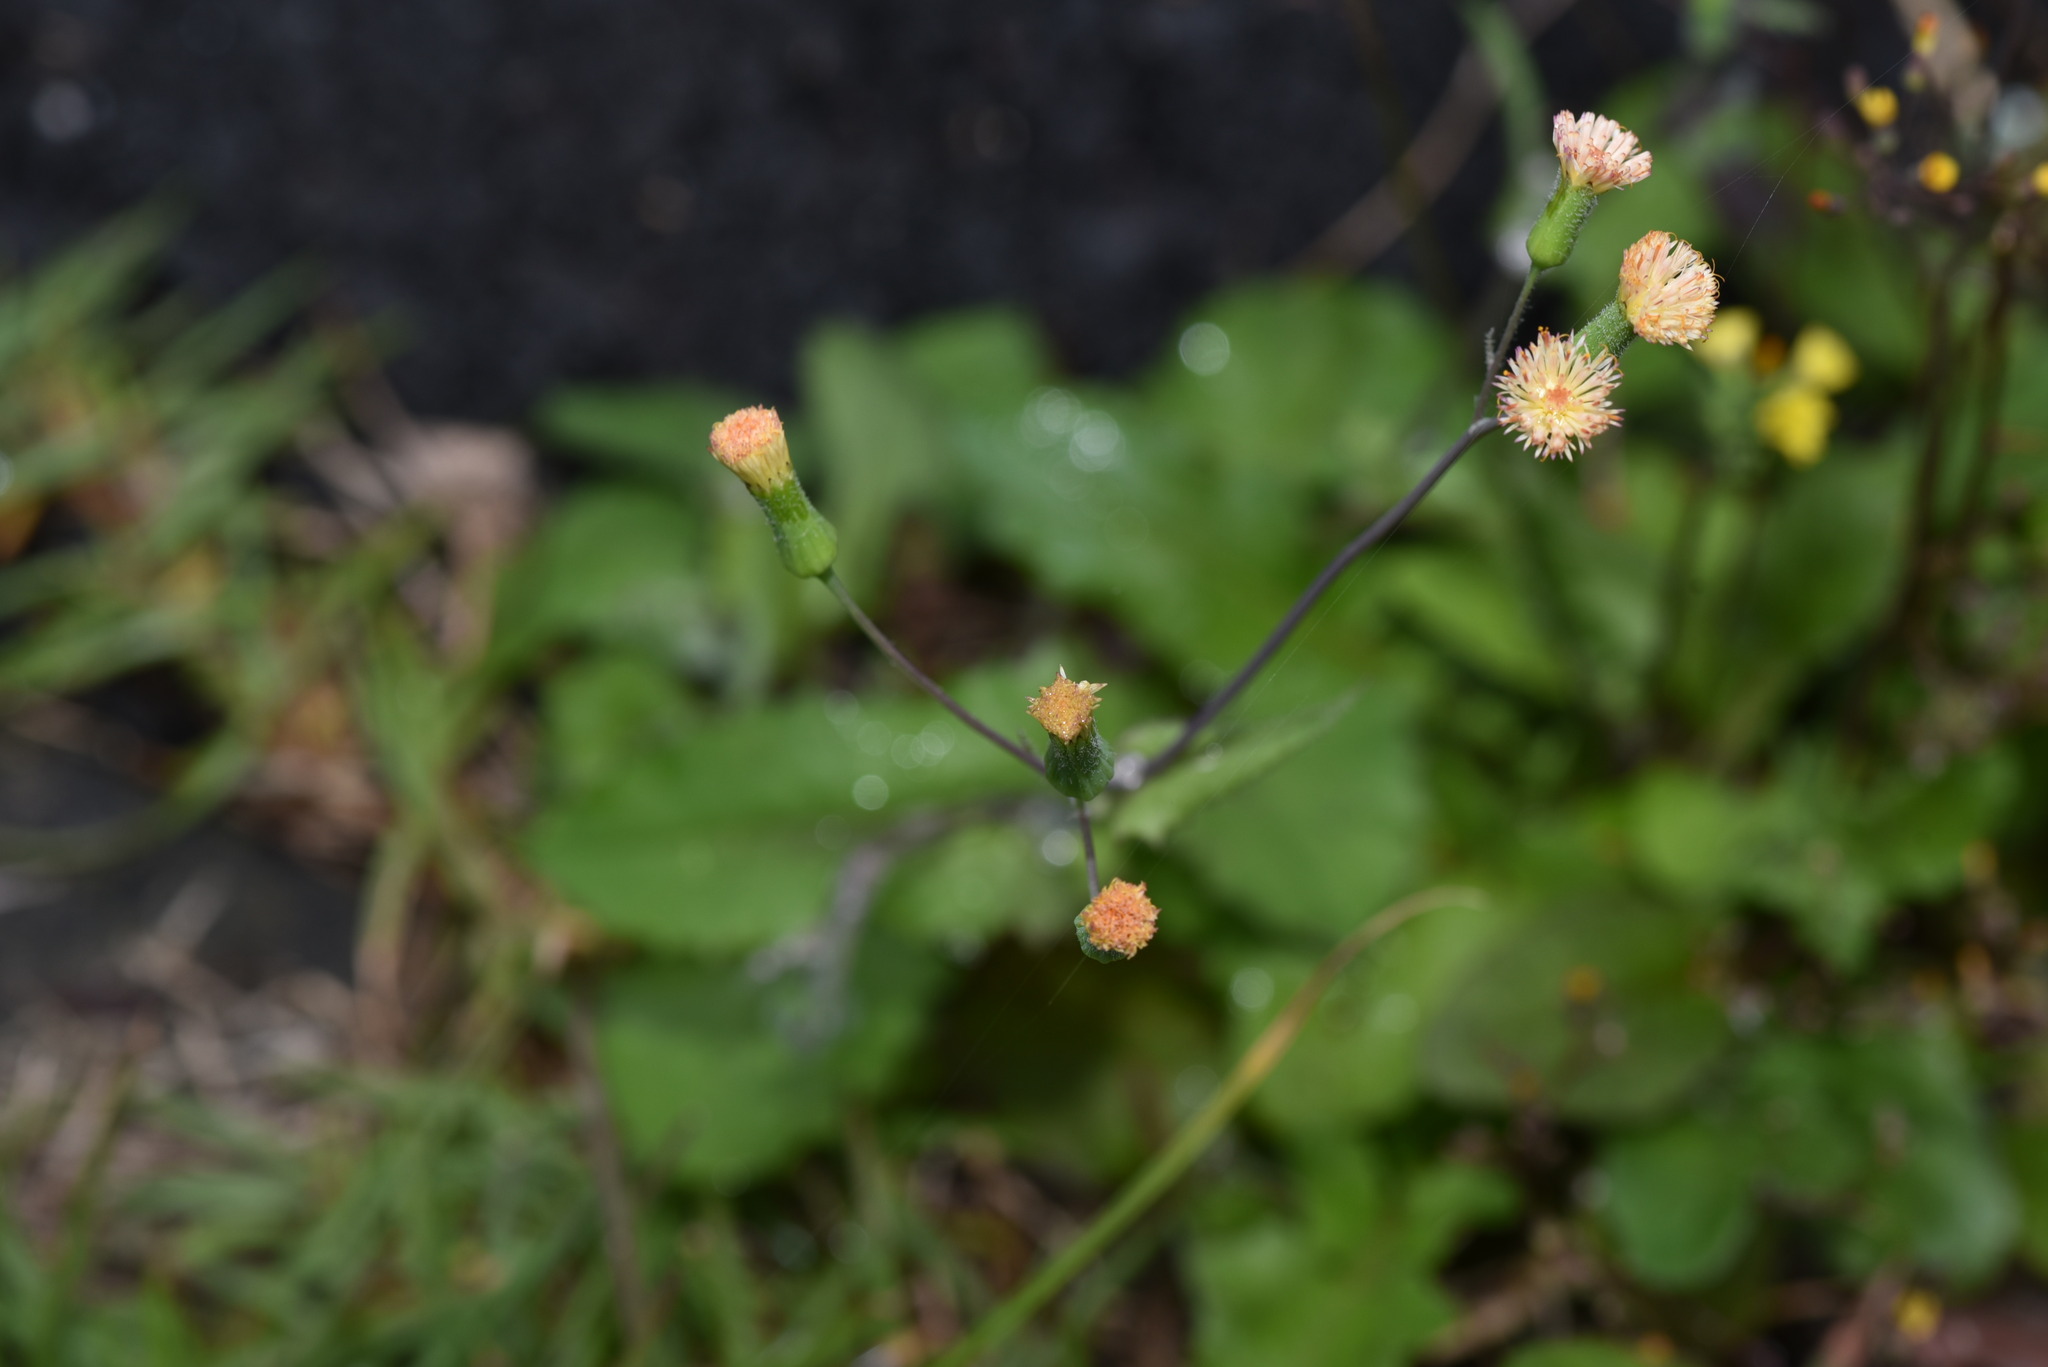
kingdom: Plantae
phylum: Tracheophyta
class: Magnoliopsida
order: Asterales
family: Asteraceae
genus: Emilia
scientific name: Emilia praetermissa
